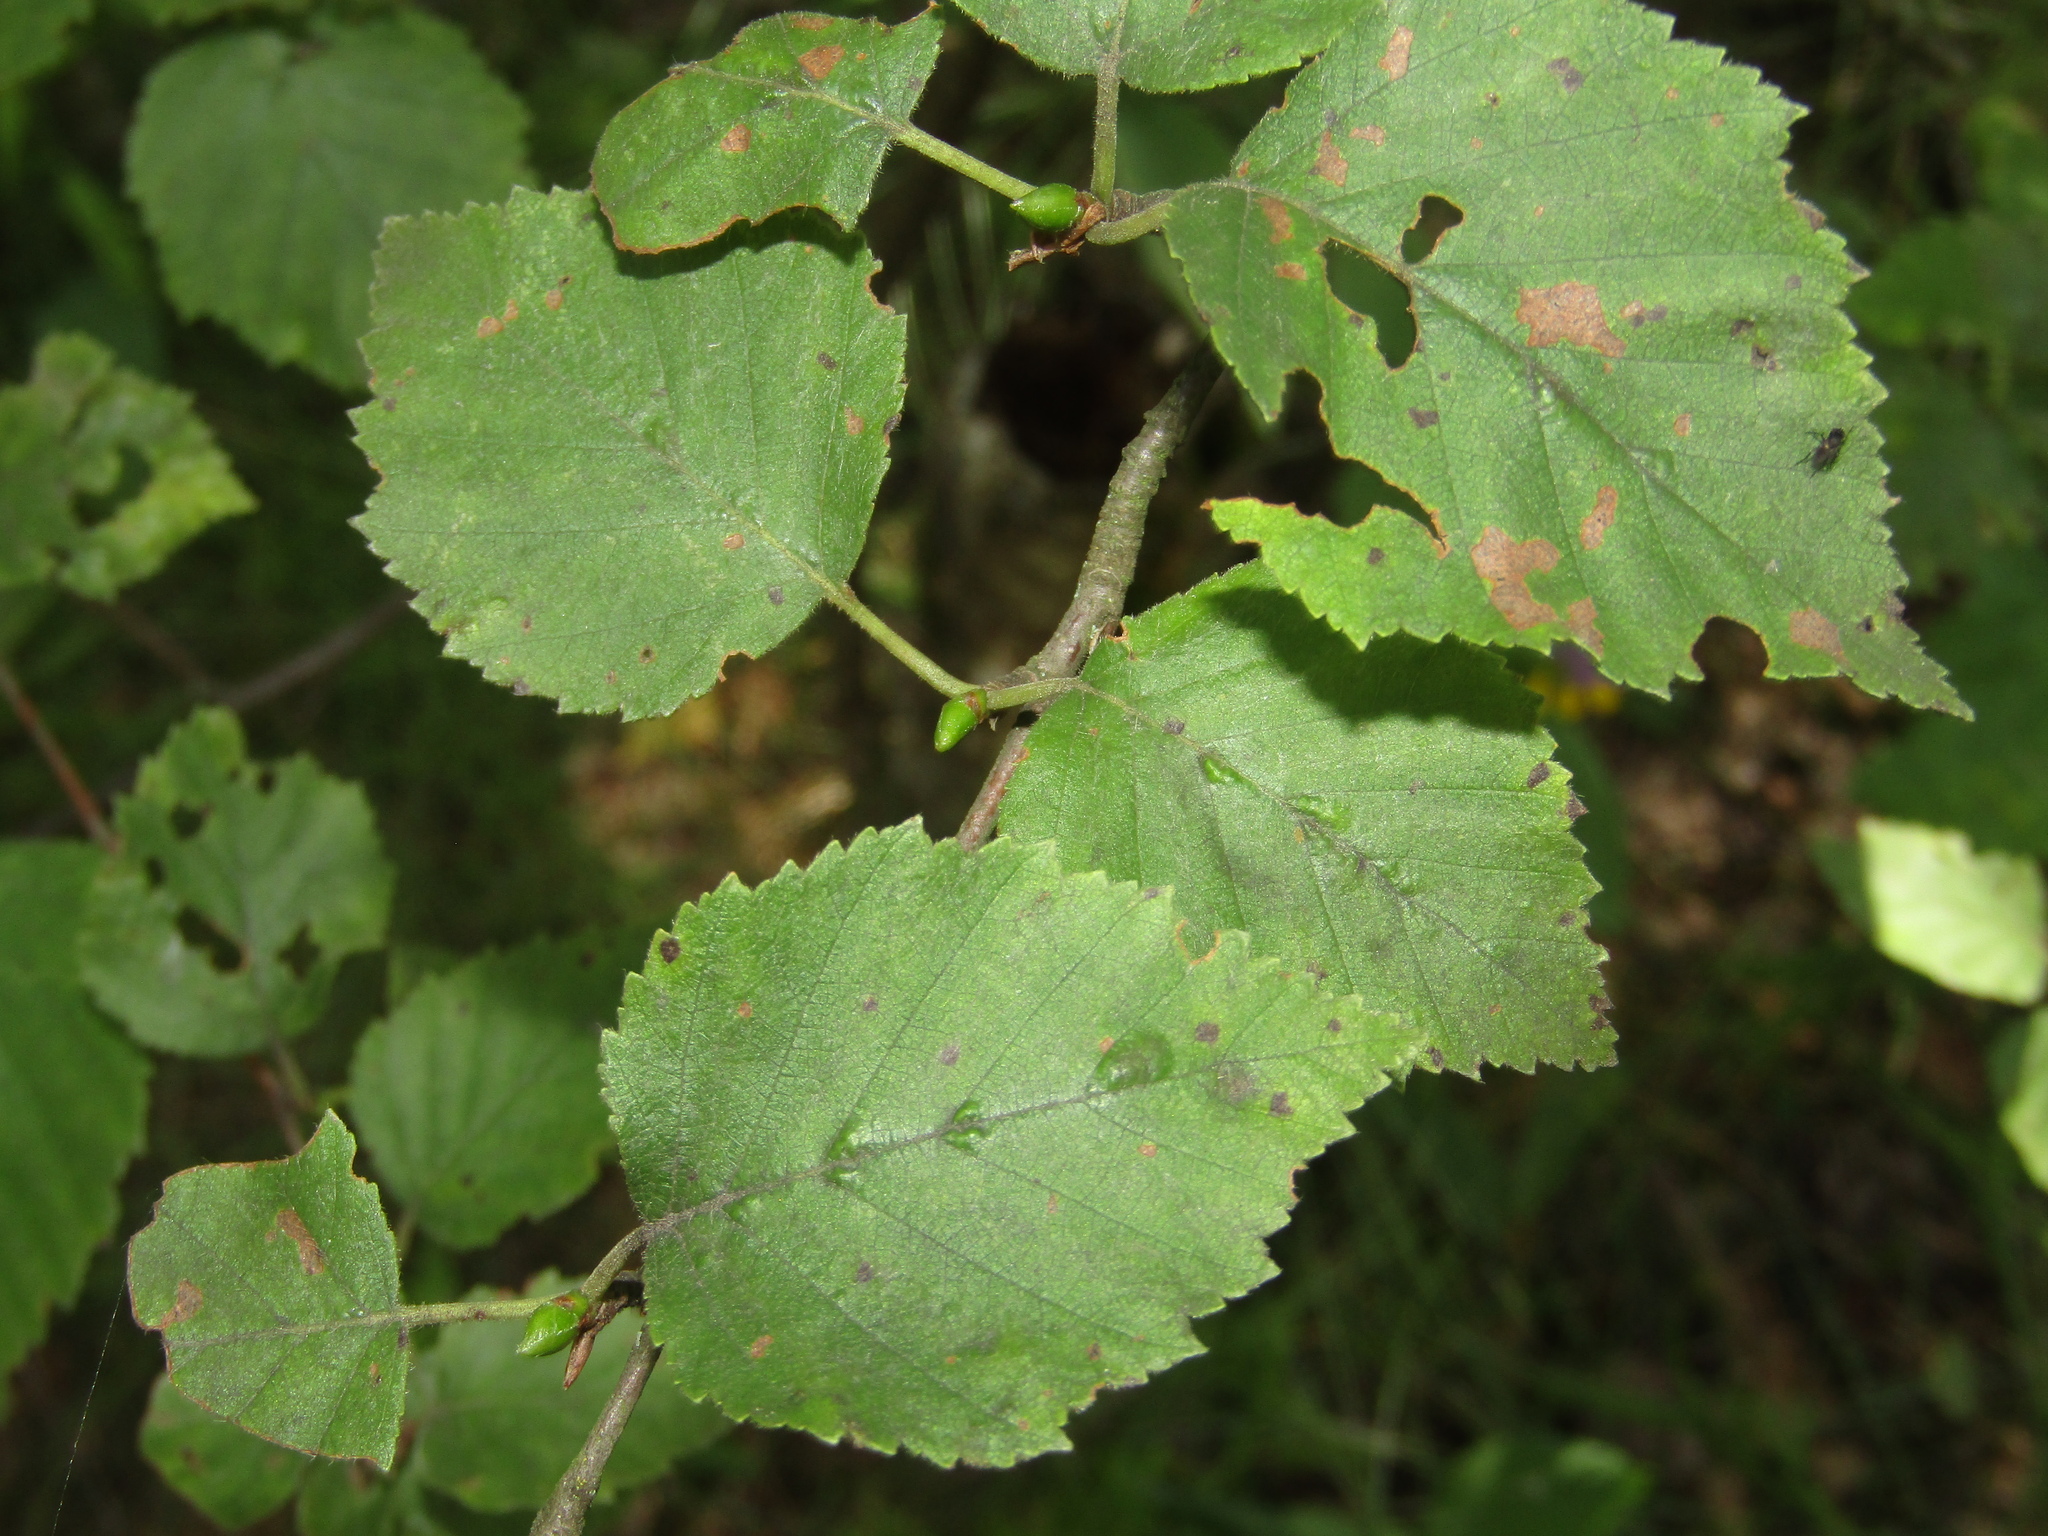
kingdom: Plantae
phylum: Tracheophyta
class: Magnoliopsida
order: Fagales
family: Betulaceae
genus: Betula
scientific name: Betula pubescens
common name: Downy birch
